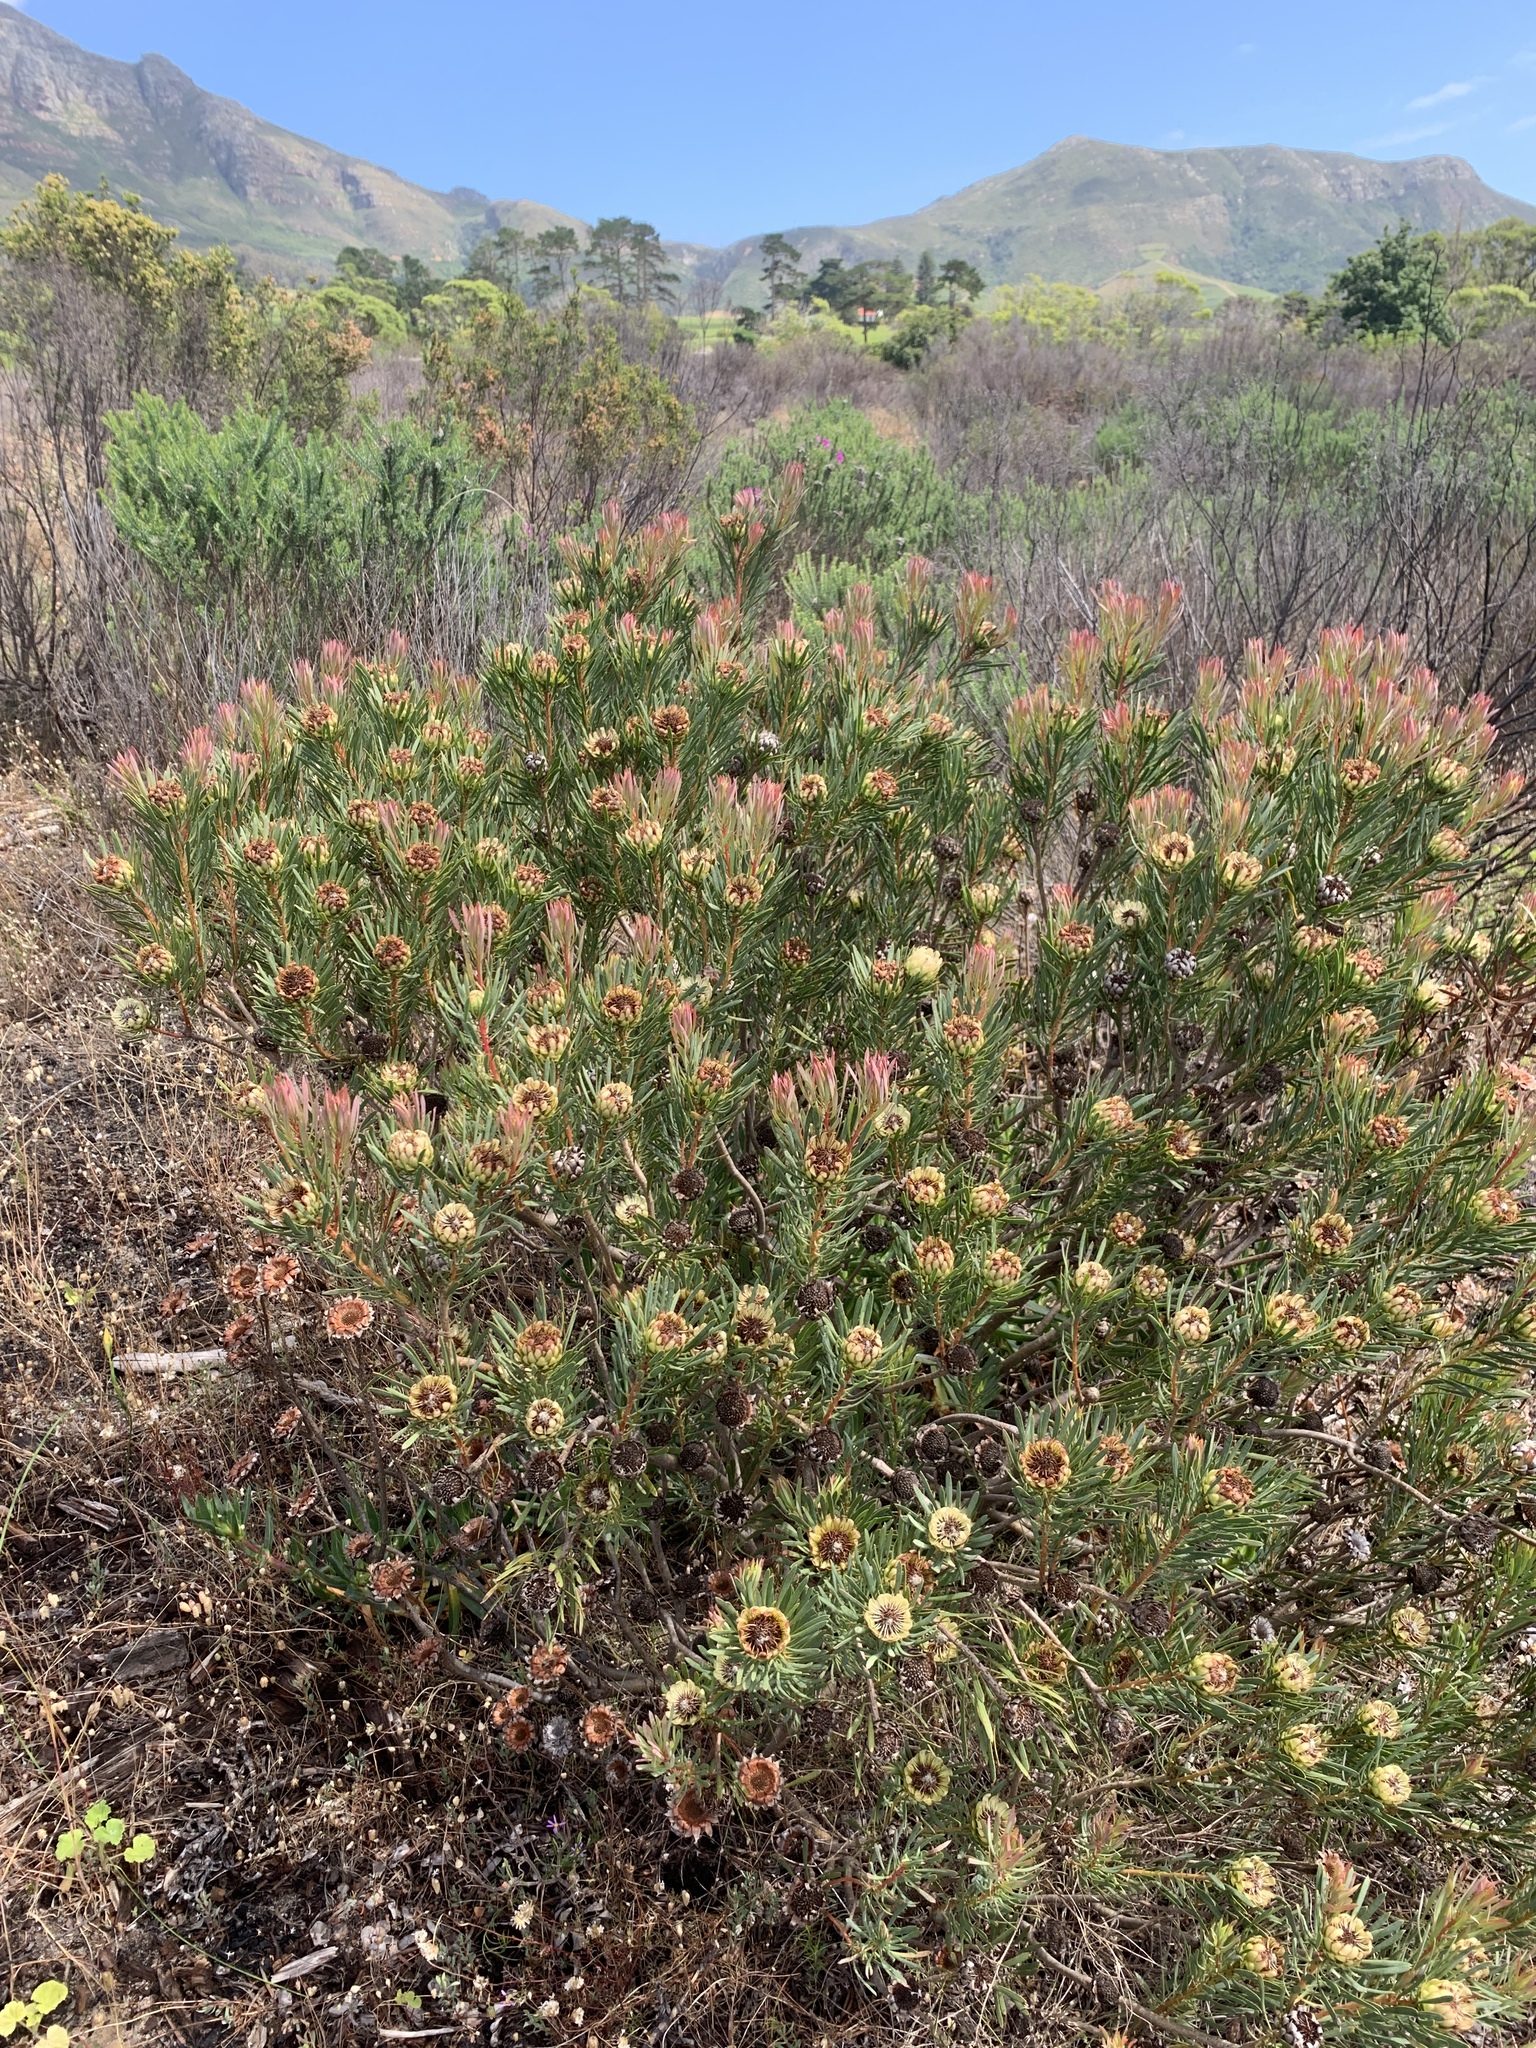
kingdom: Plantae
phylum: Tracheophyta
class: Magnoliopsida
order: Proteales
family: Proteaceae
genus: Protea
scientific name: Protea scolymocephala
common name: Thistle sugarbush
